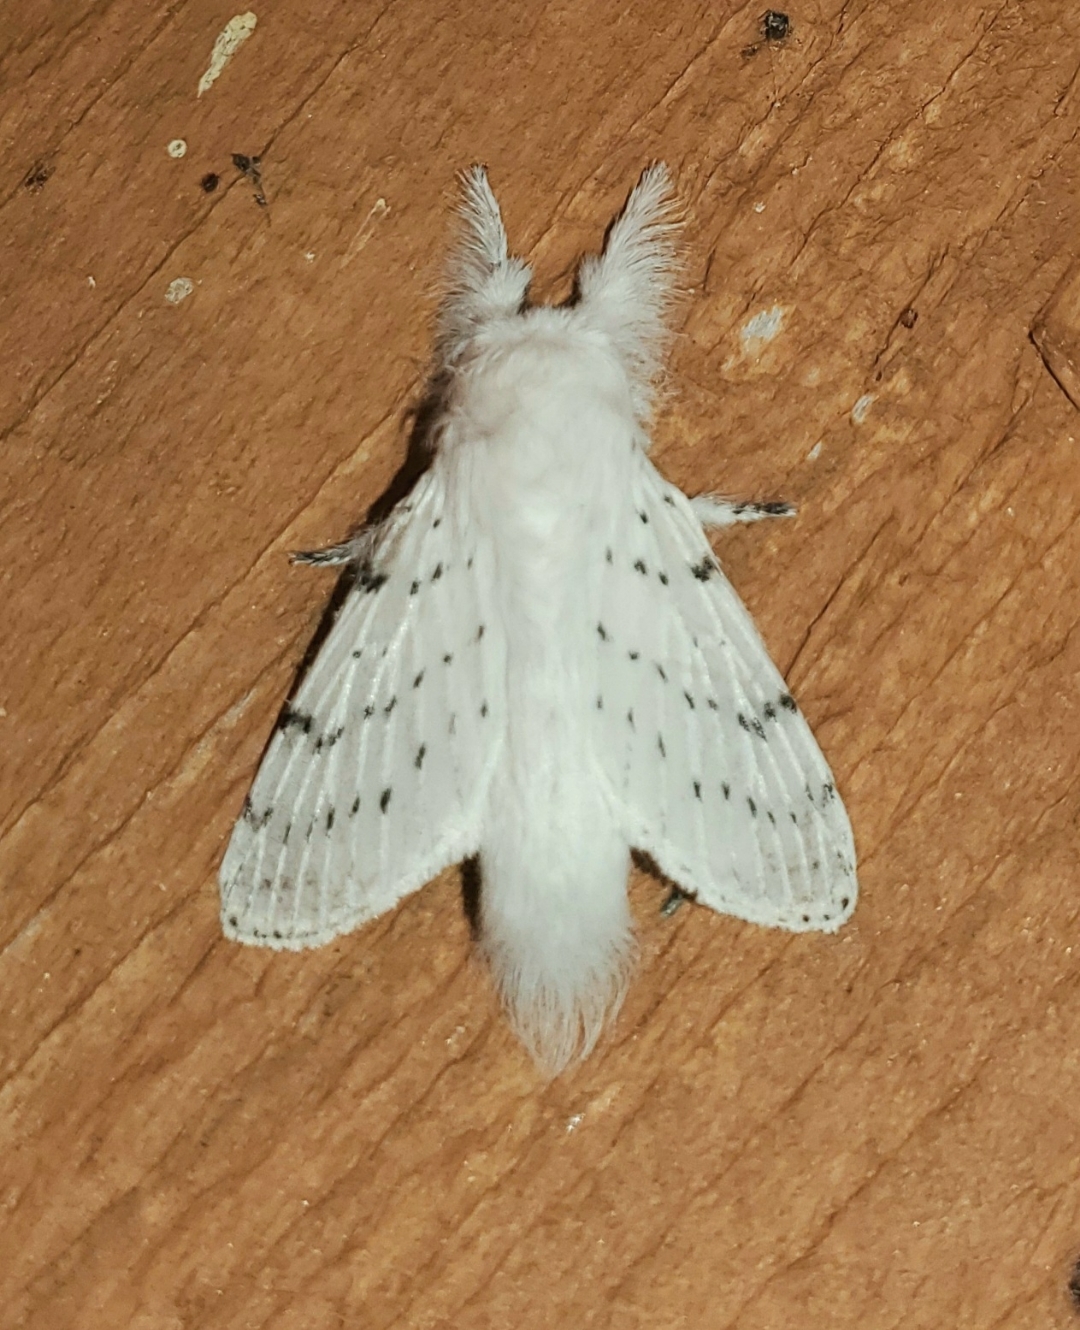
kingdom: Animalia
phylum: Arthropoda
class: Insecta
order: Lepidoptera
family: Lasiocampidae
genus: Artace
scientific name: Artace cribrarius
